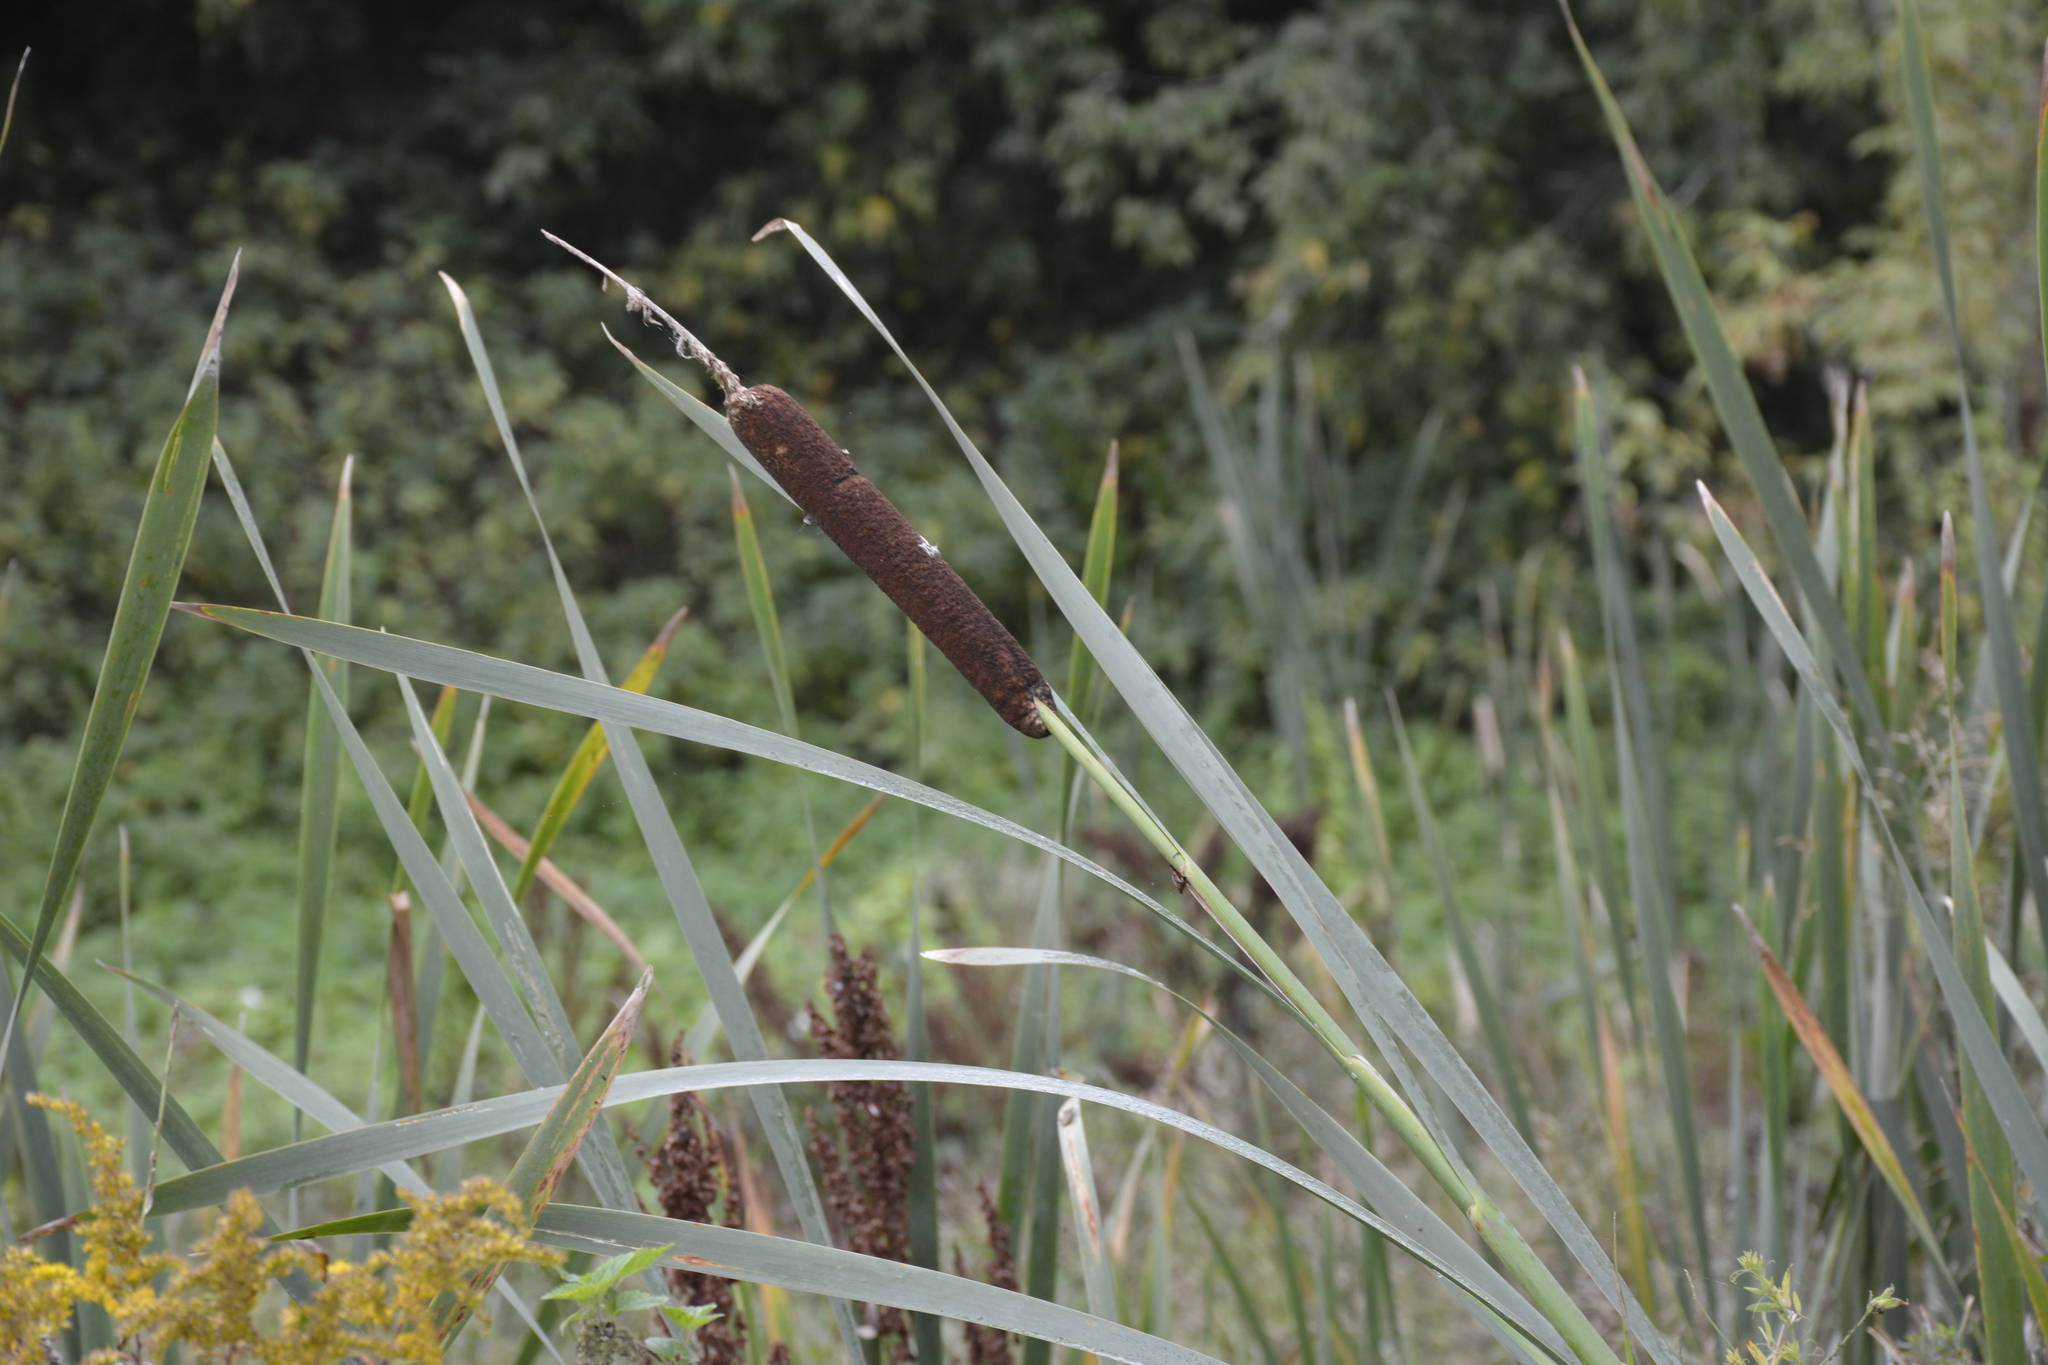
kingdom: Plantae
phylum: Tracheophyta
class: Liliopsida
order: Poales
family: Typhaceae
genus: Typha
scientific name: Typha latifolia
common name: Broadleaf cattail
